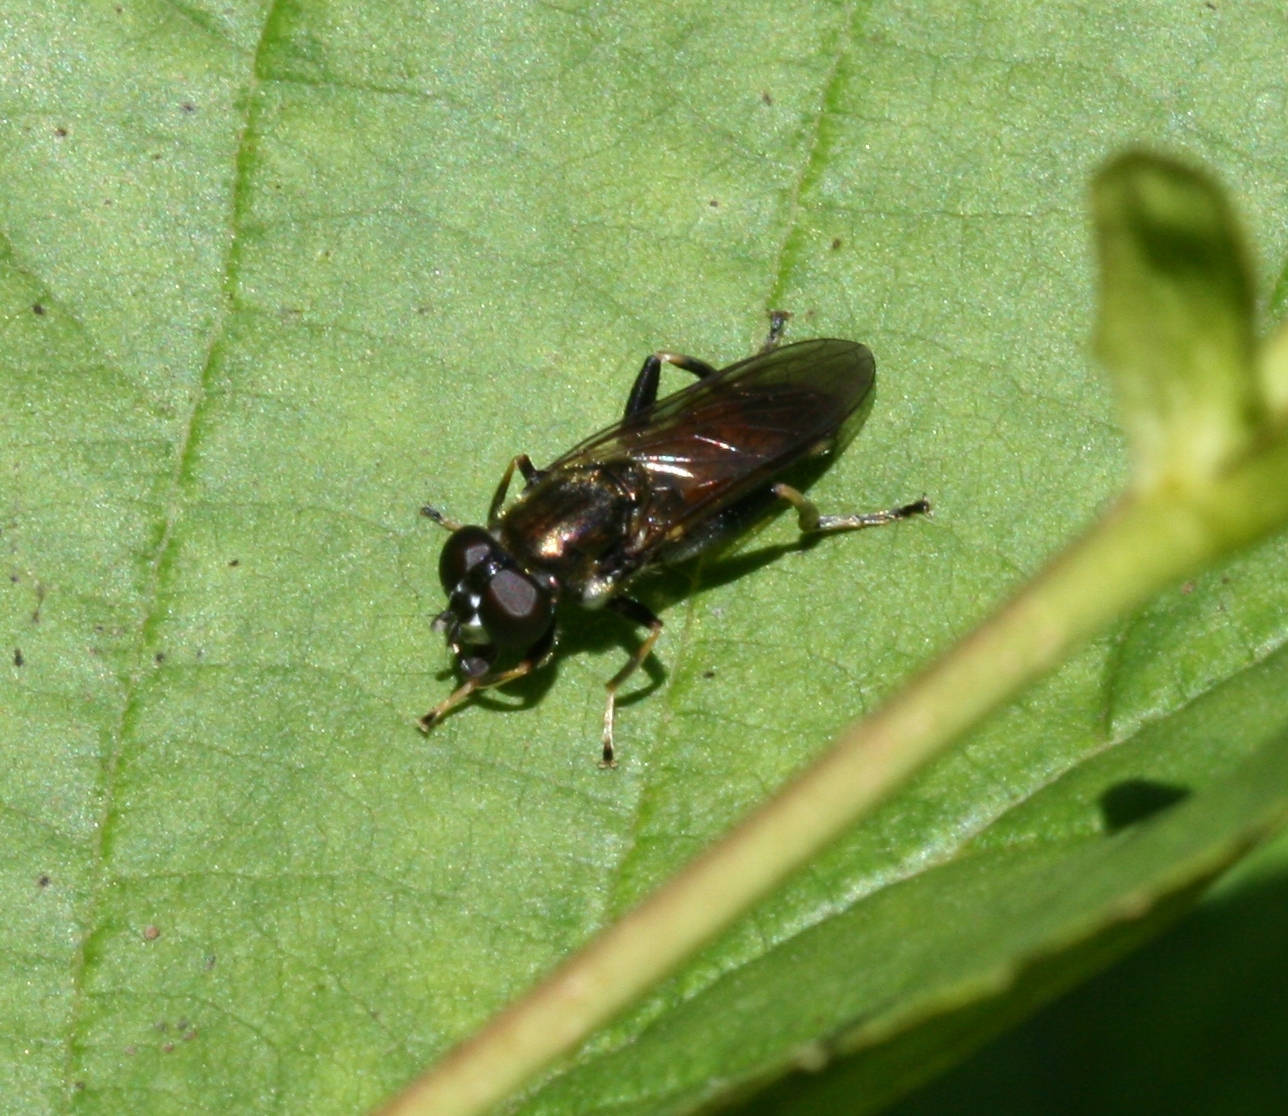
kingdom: Animalia
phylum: Arthropoda
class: Insecta
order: Diptera
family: Syrphidae
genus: Xylota
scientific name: Xylota segnis
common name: Brown-toed forest fly
